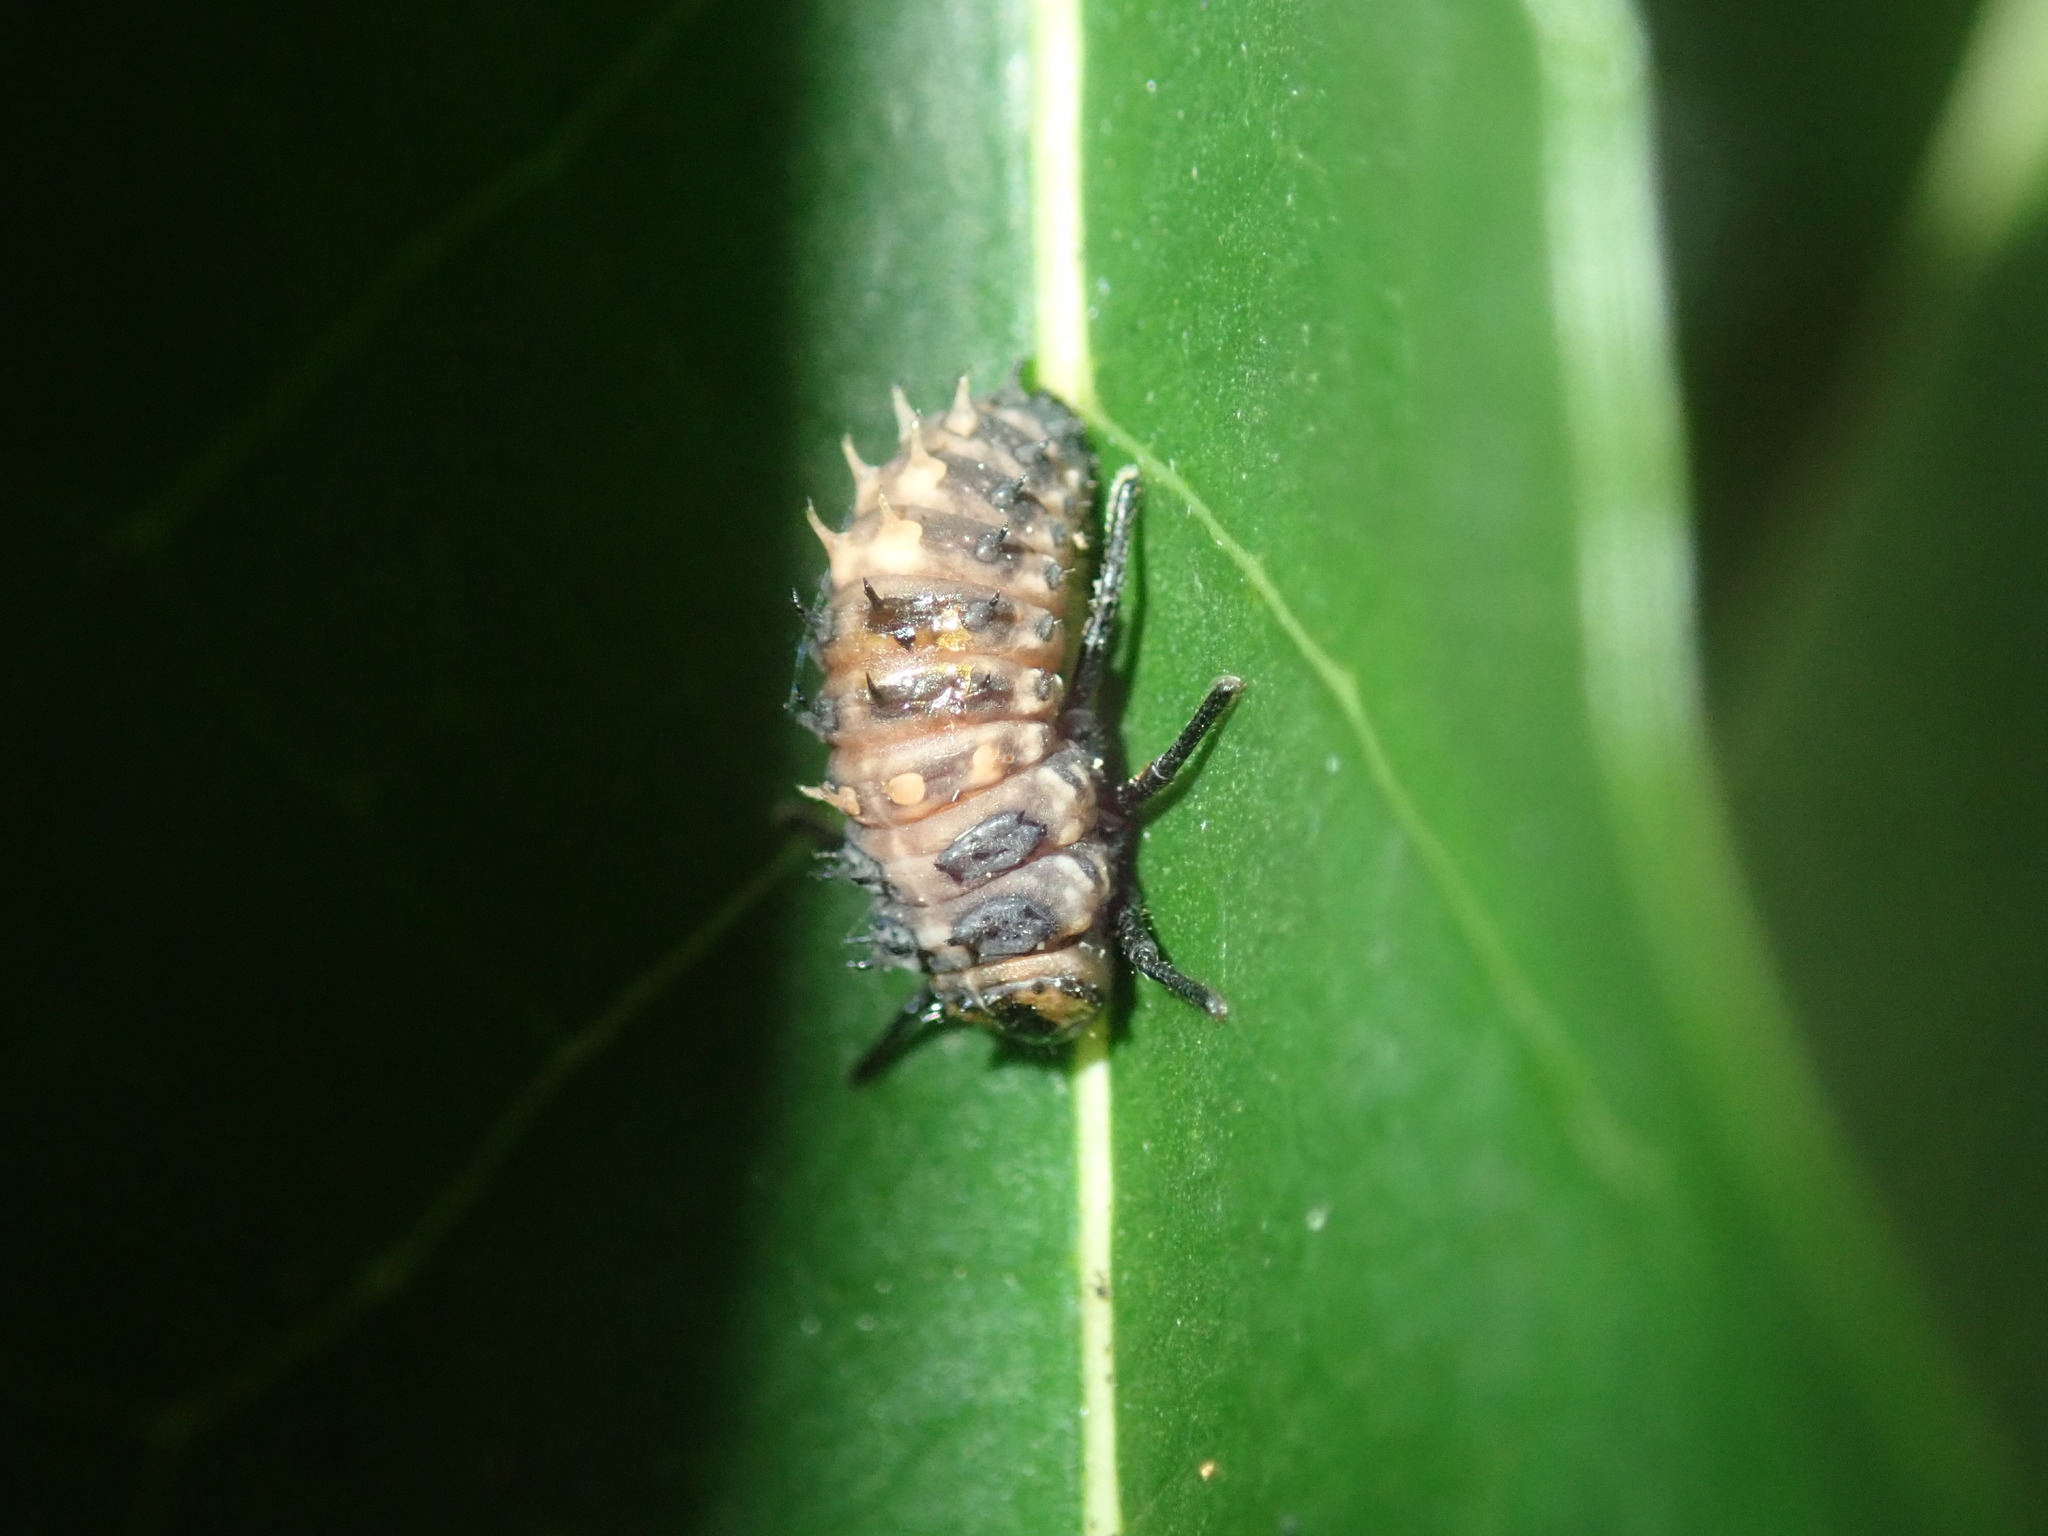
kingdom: Animalia
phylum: Arthropoda
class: Insecta
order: Coleoptera
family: Coccinellidae
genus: Harmonia
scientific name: Harmonia
